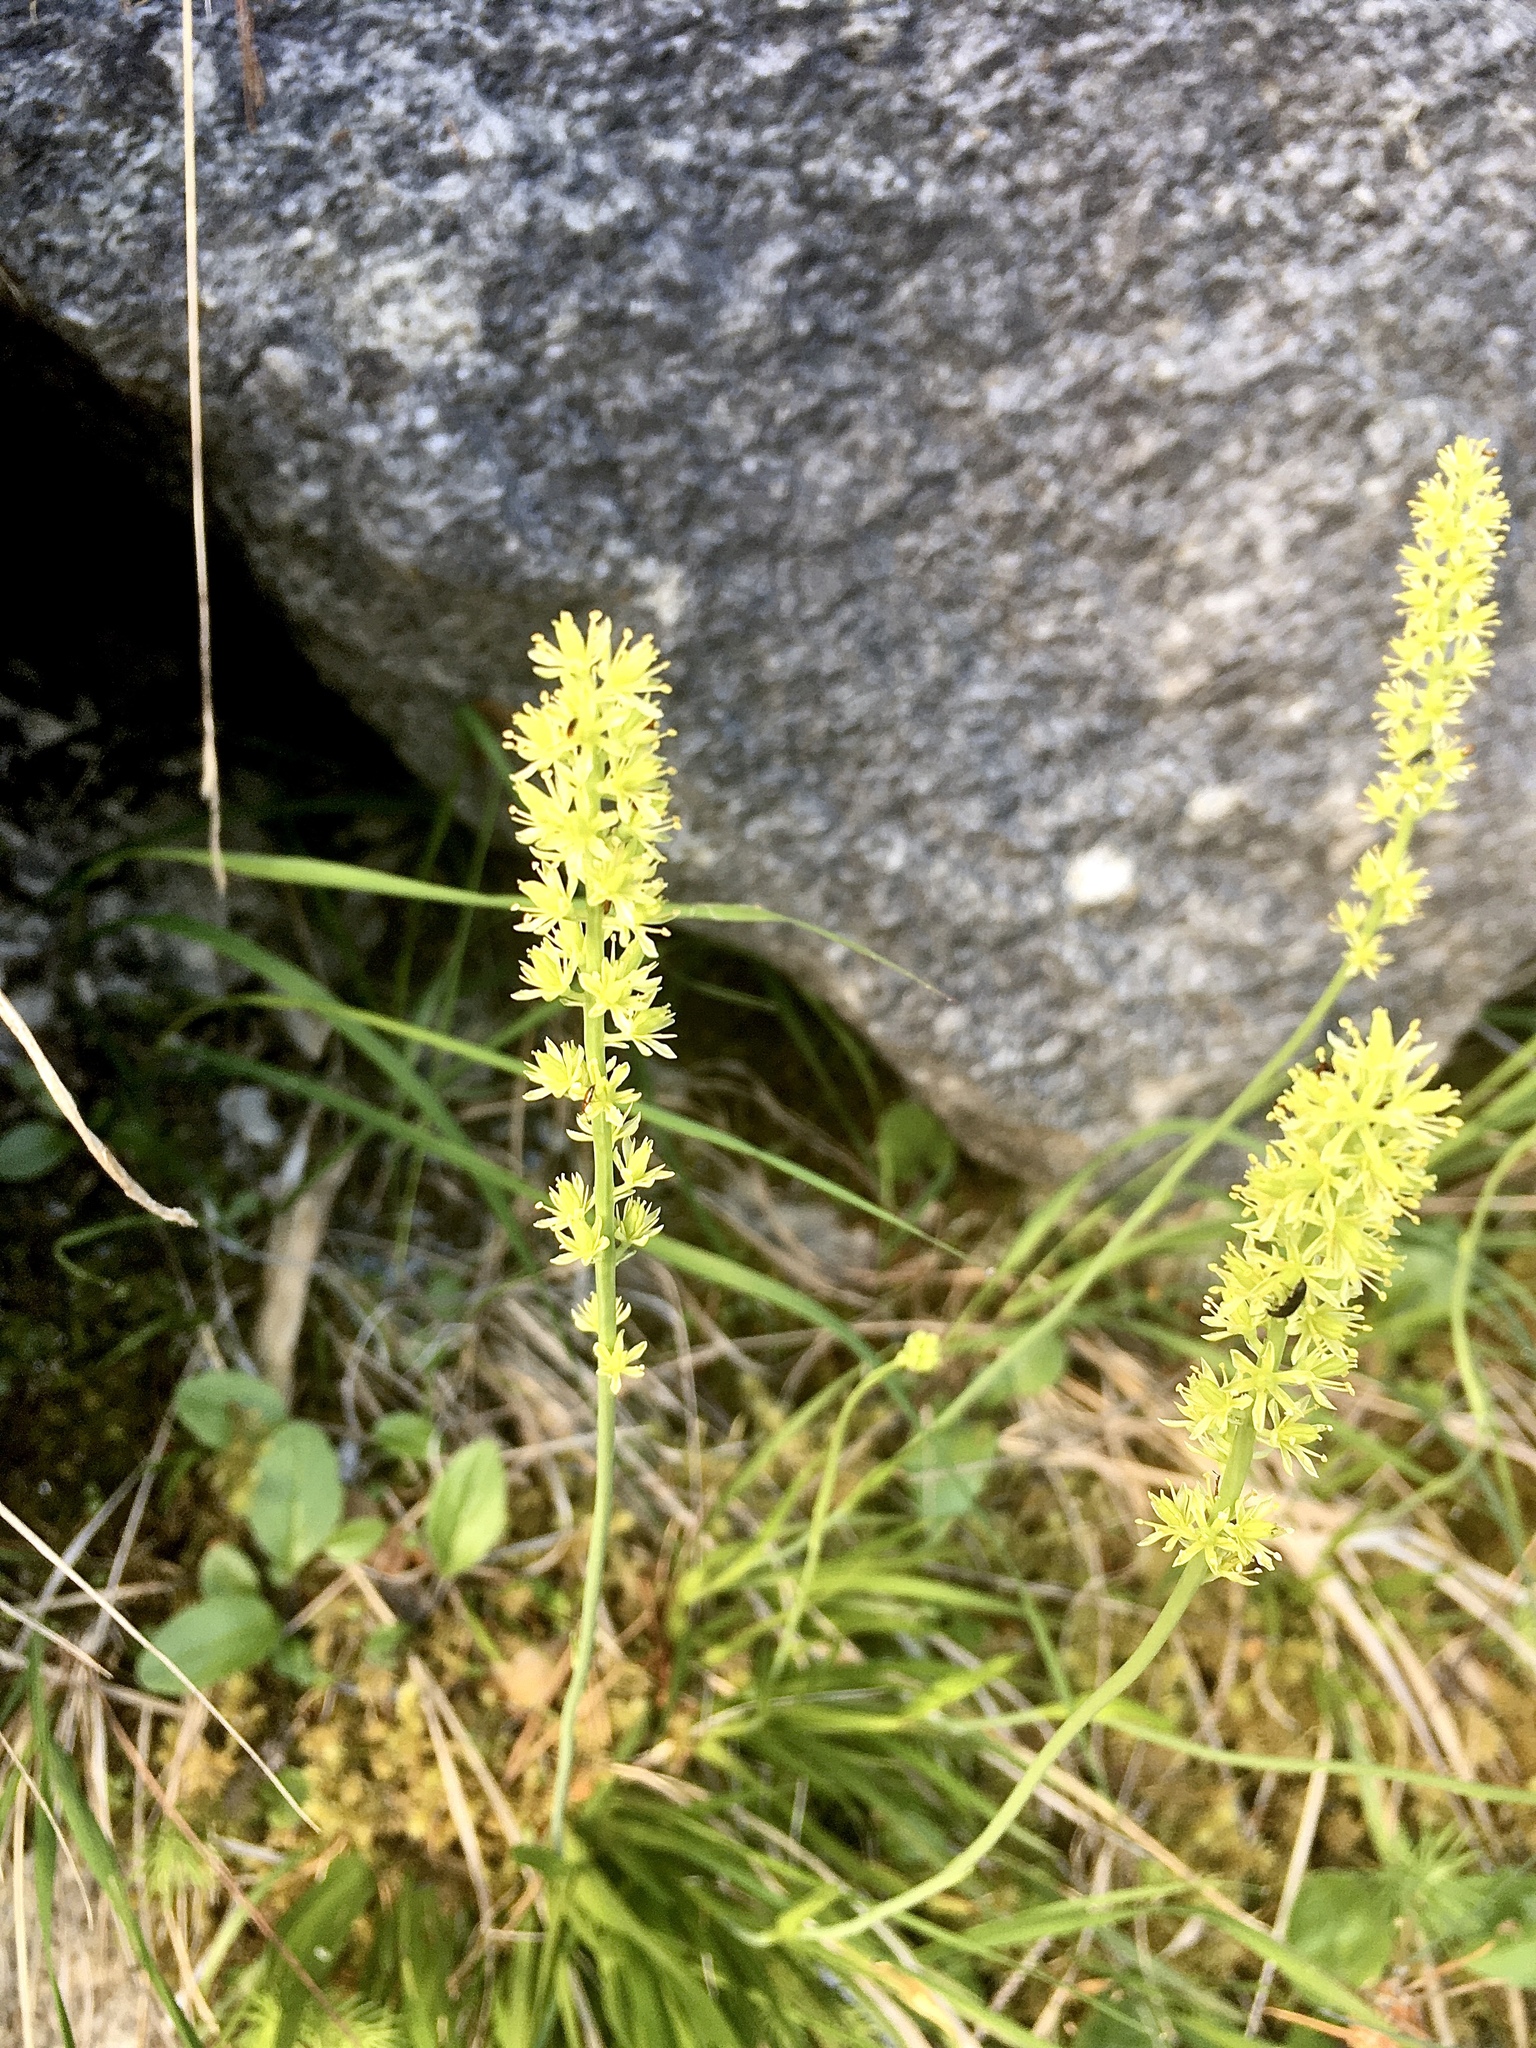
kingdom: Plantae
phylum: Tracheophyta
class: Liliopsida
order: Alismatales
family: Tofieldiaceae
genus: Tofieldia
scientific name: Tofieldia calyculata
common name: German-asphodel
